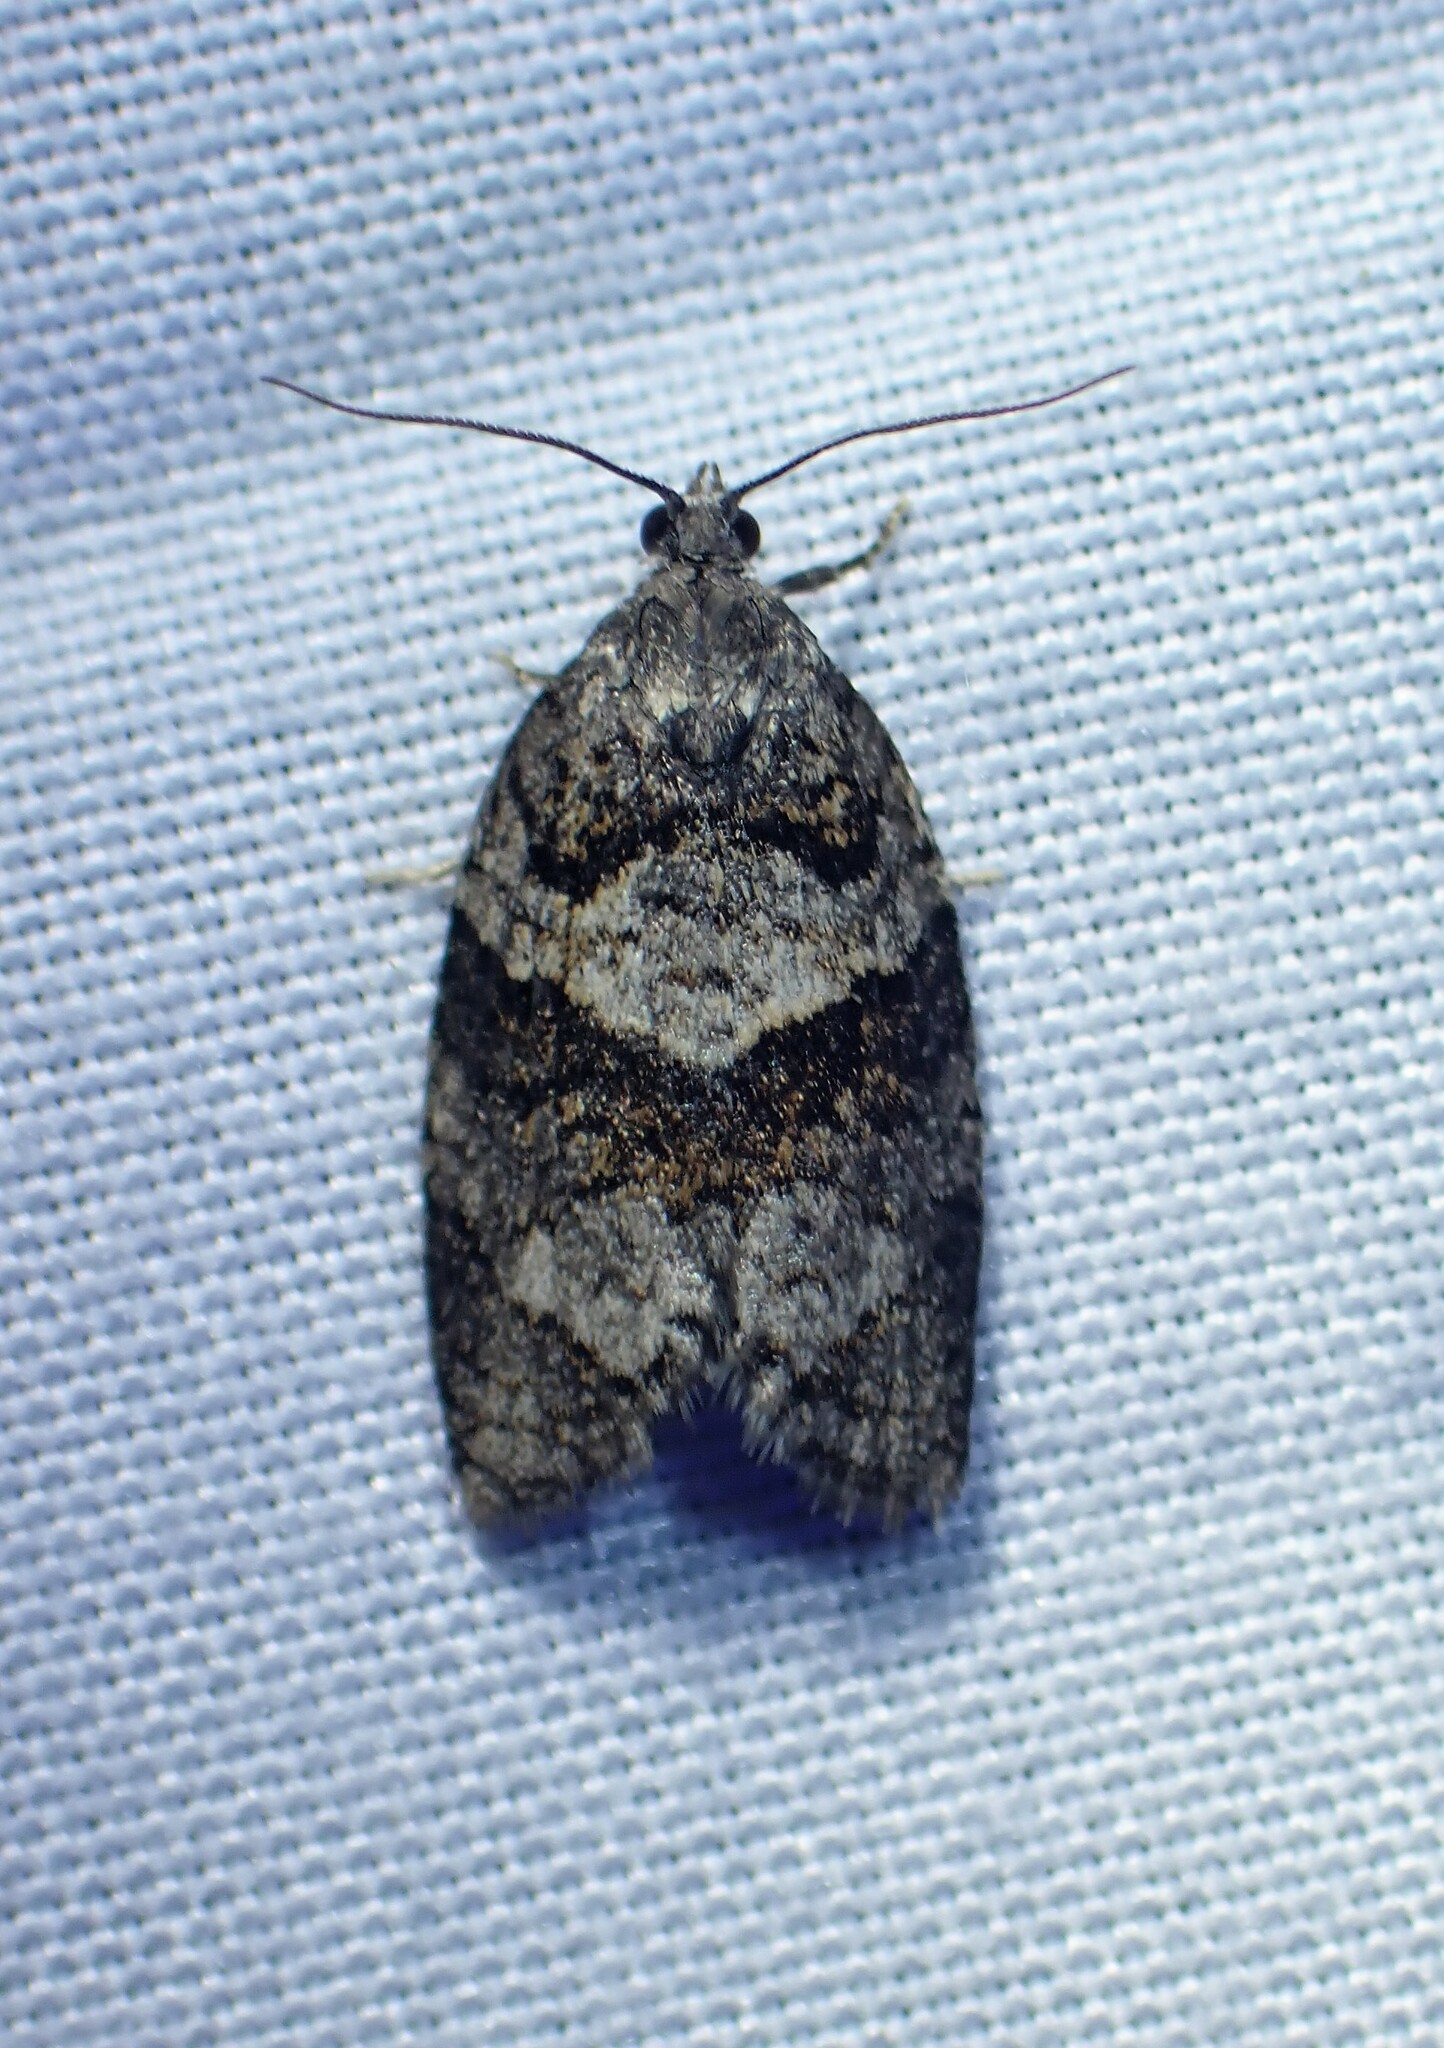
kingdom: Animalia
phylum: Arthropoda
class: Insecta
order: Lepidoptera
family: Tortricidae
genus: Syndemis
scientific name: Syndemis afflictana
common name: Gray leafroller moth
